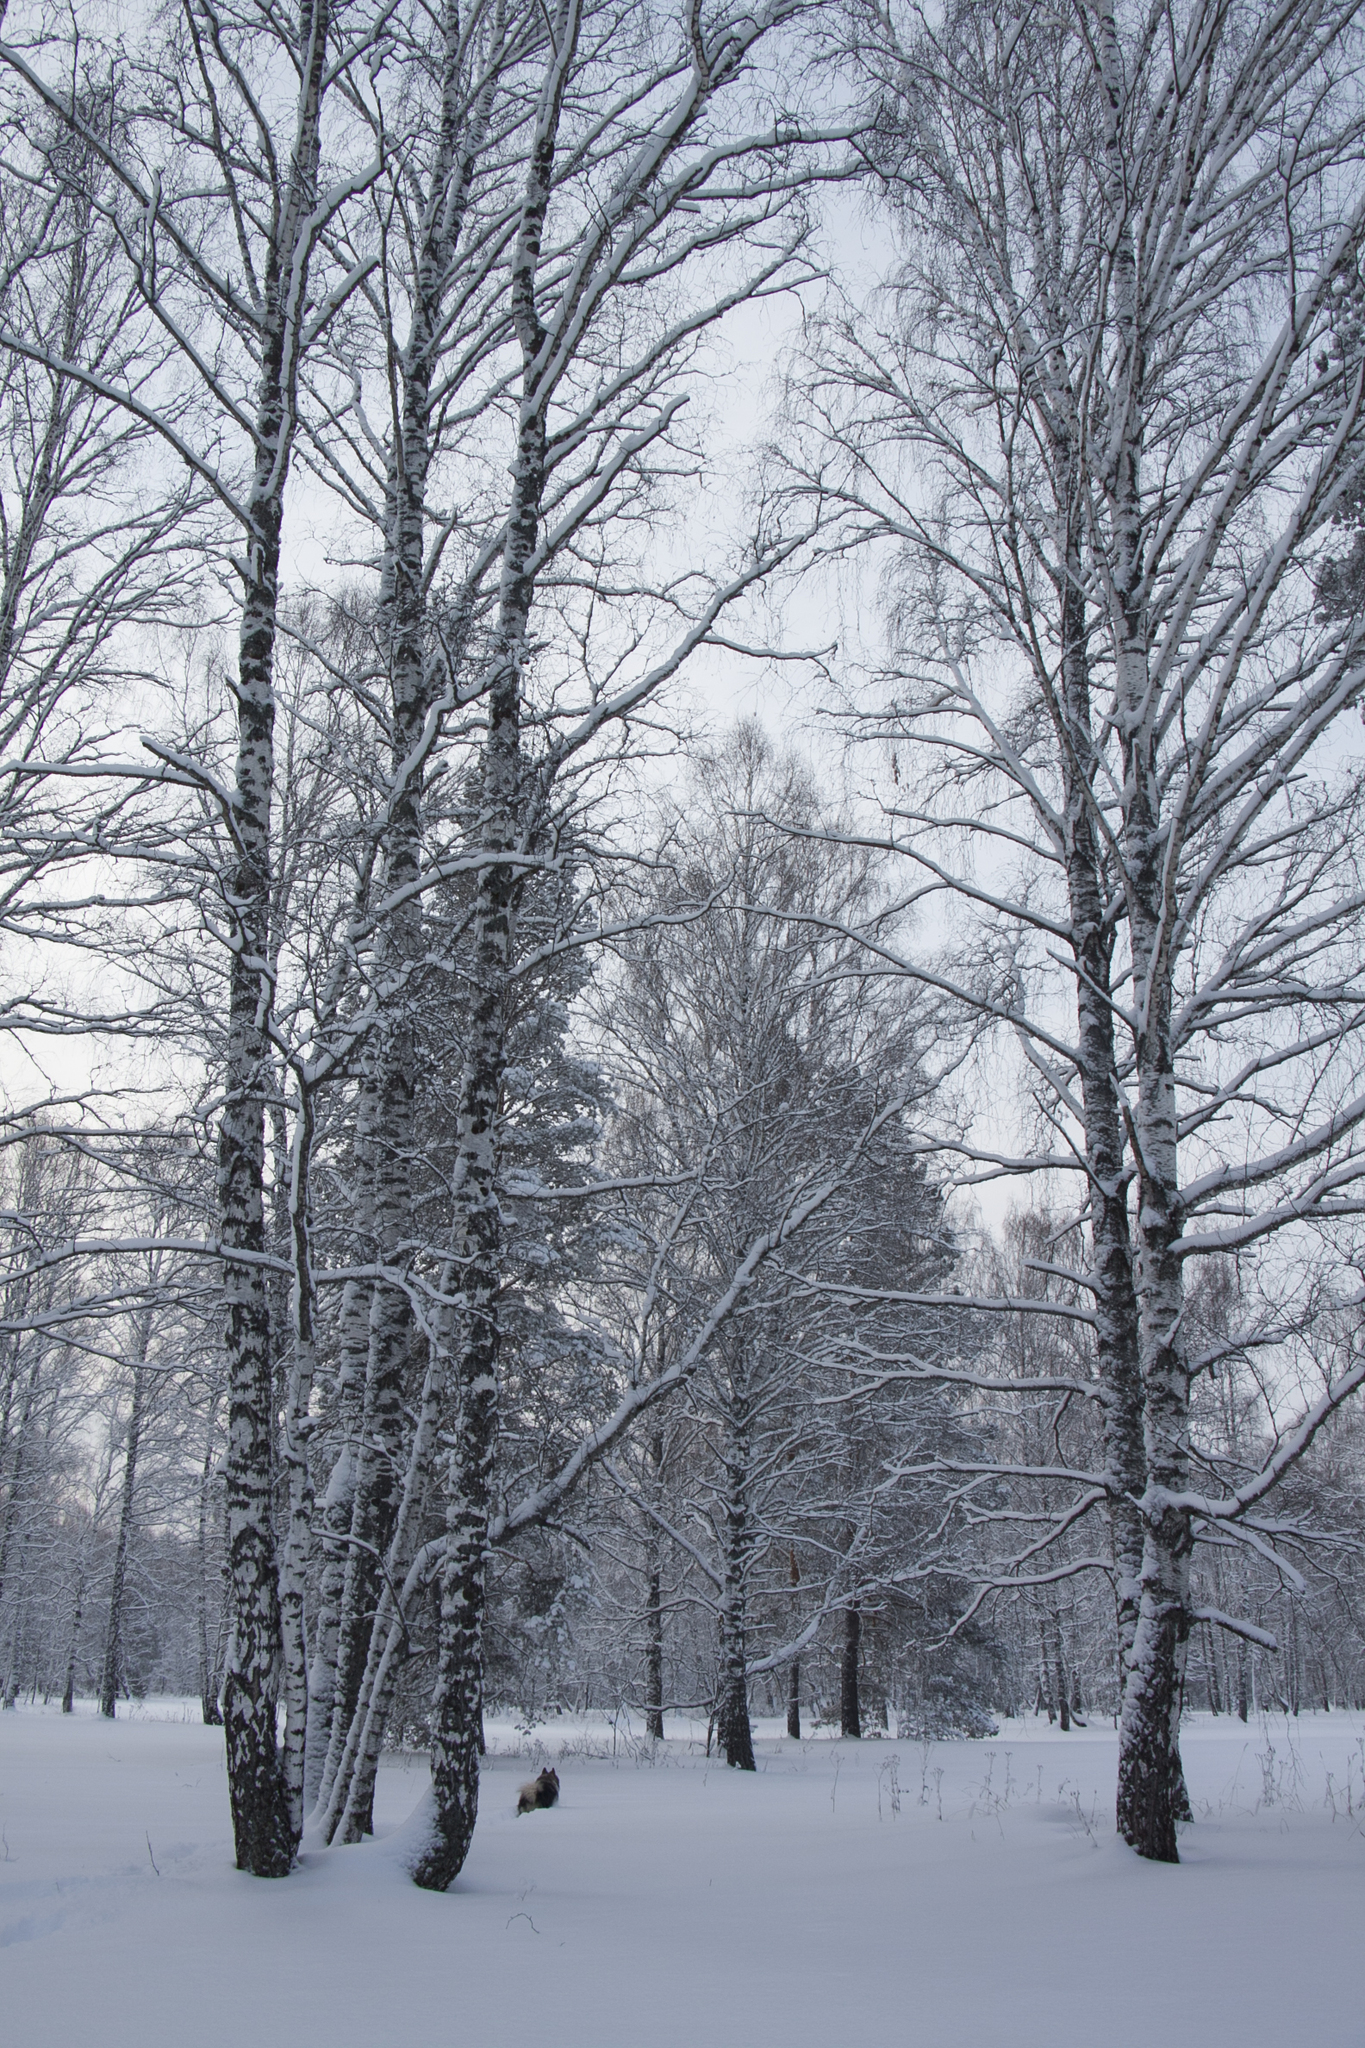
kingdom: Plantae
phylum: Tracheophyta
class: Magnoliopsida
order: Fagales
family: Betulaceae
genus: Betula
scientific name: Betula pendula
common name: Silver birch
